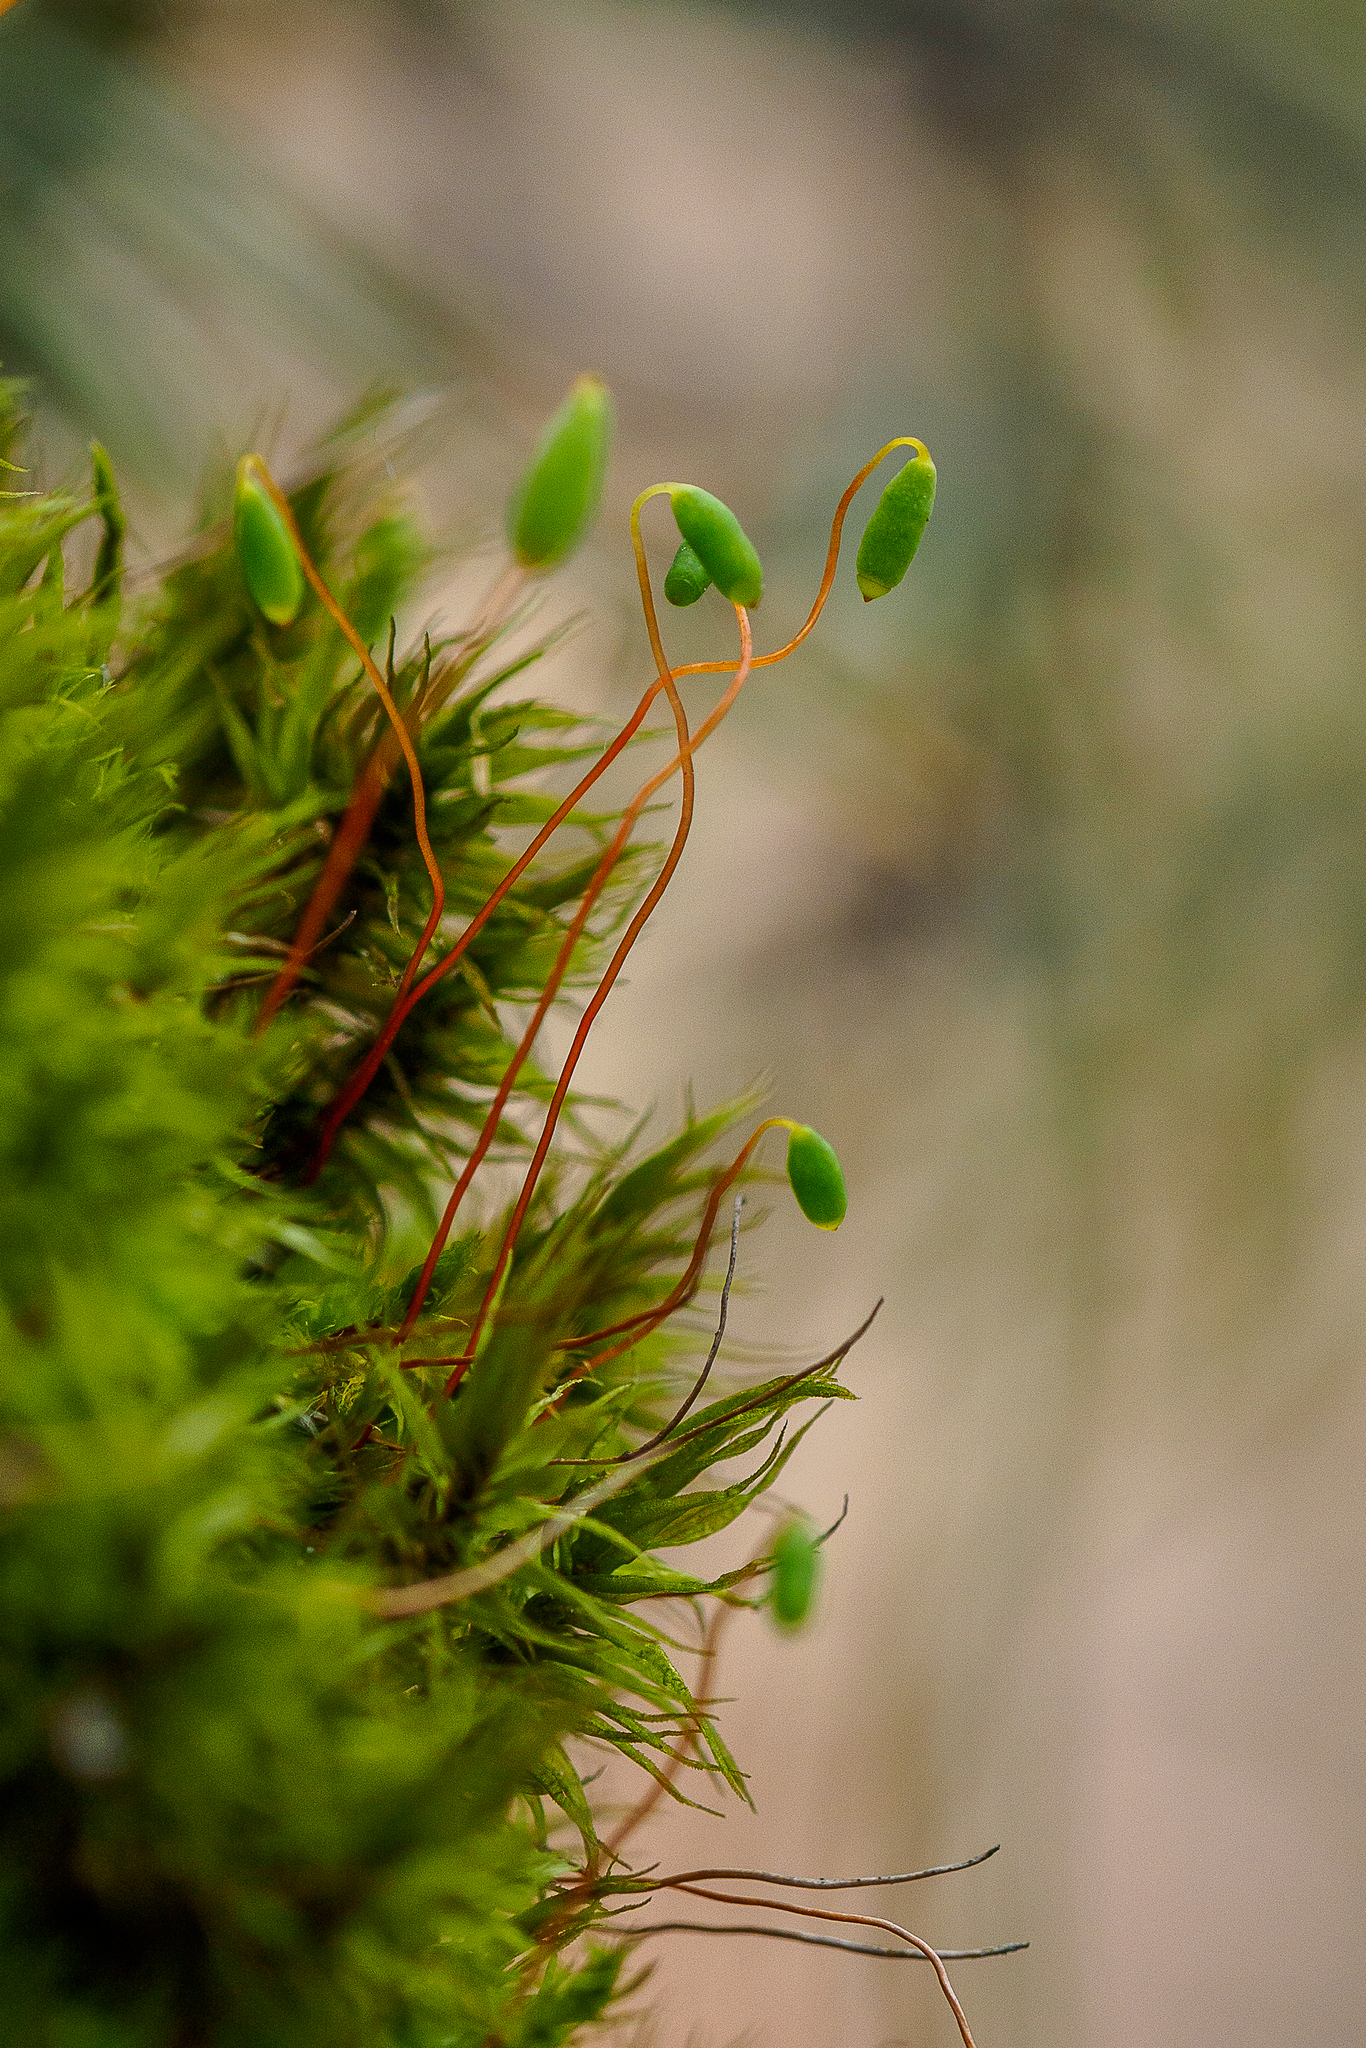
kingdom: Plantae
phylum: Bryophyta
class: Bryopsida
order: Bryales
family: Mniaceae
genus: Pohlia
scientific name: Pohlia nutans
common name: Nodding thread-moss
